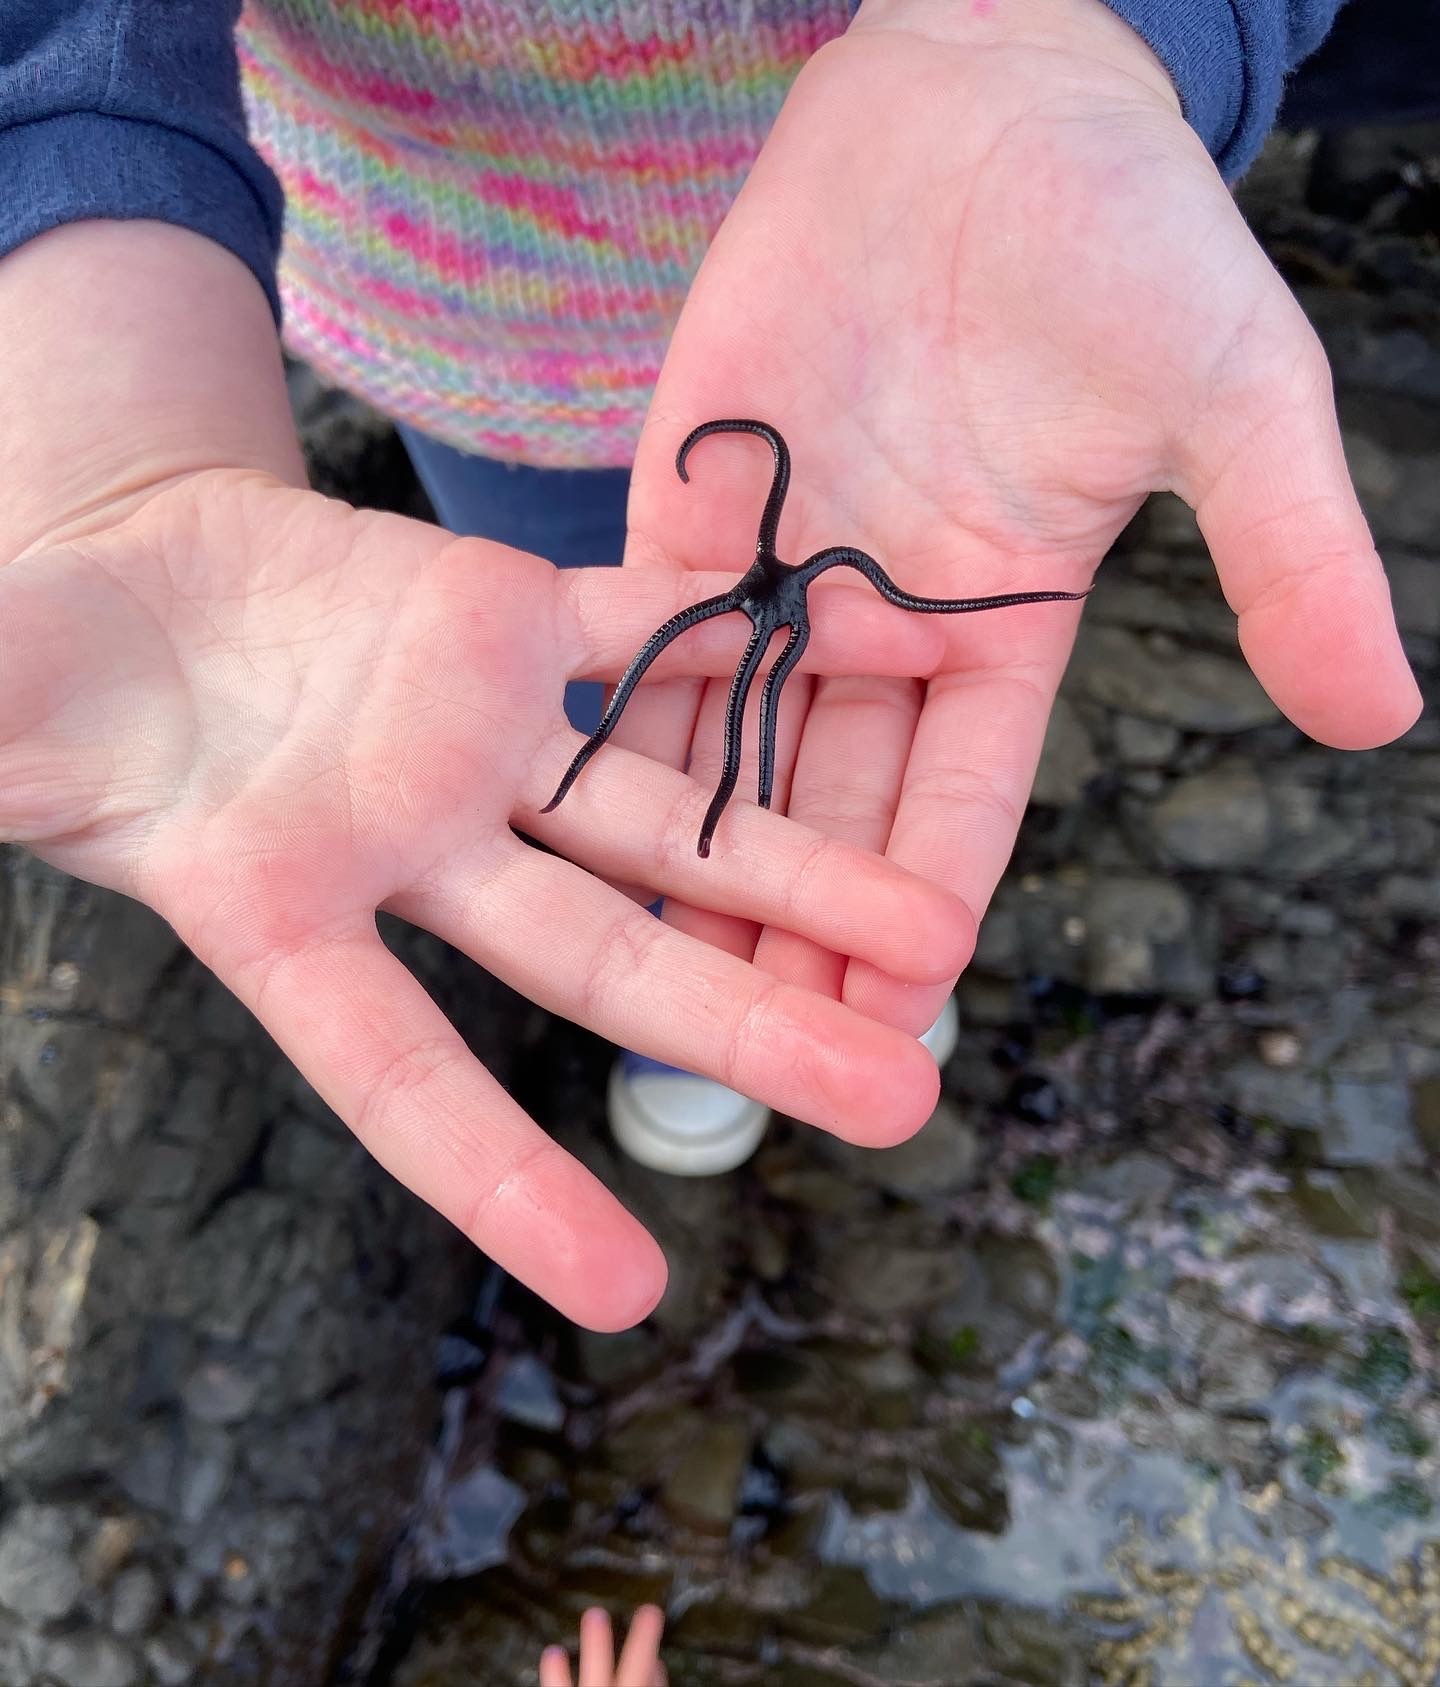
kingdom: Animalia
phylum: Echinodermata
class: Ophiuroidea
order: Ophiacanthida
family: Ophiodermatidae
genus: Ophiopsammus
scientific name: Ophiopsammus maculata
